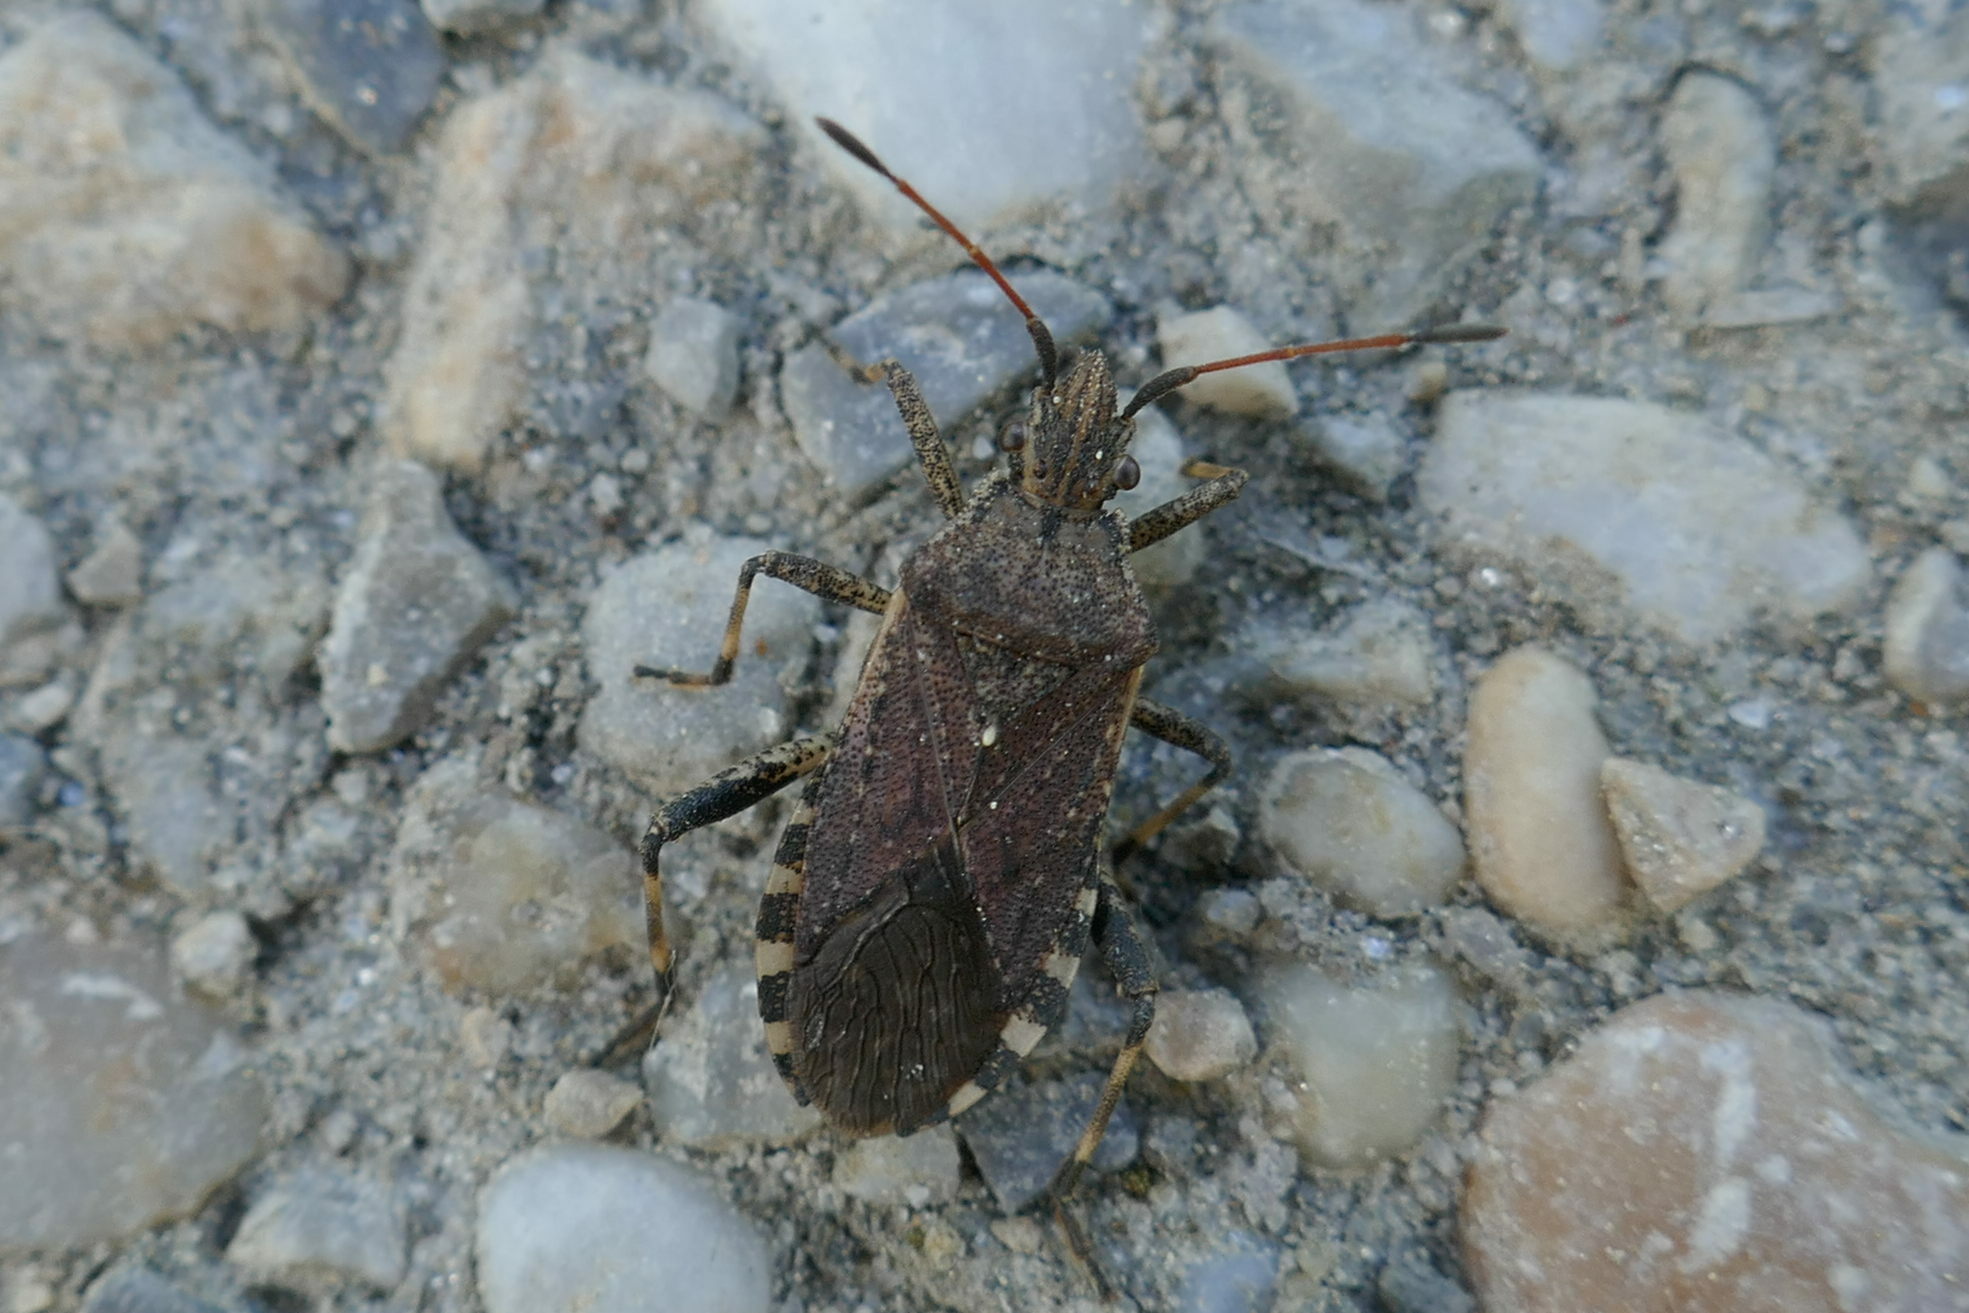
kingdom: Animalia
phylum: Arthropoda
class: Insecta
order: Hemiptera
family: Coreidae
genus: Ceraleptus
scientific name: Ceraleptus gracilicornis
